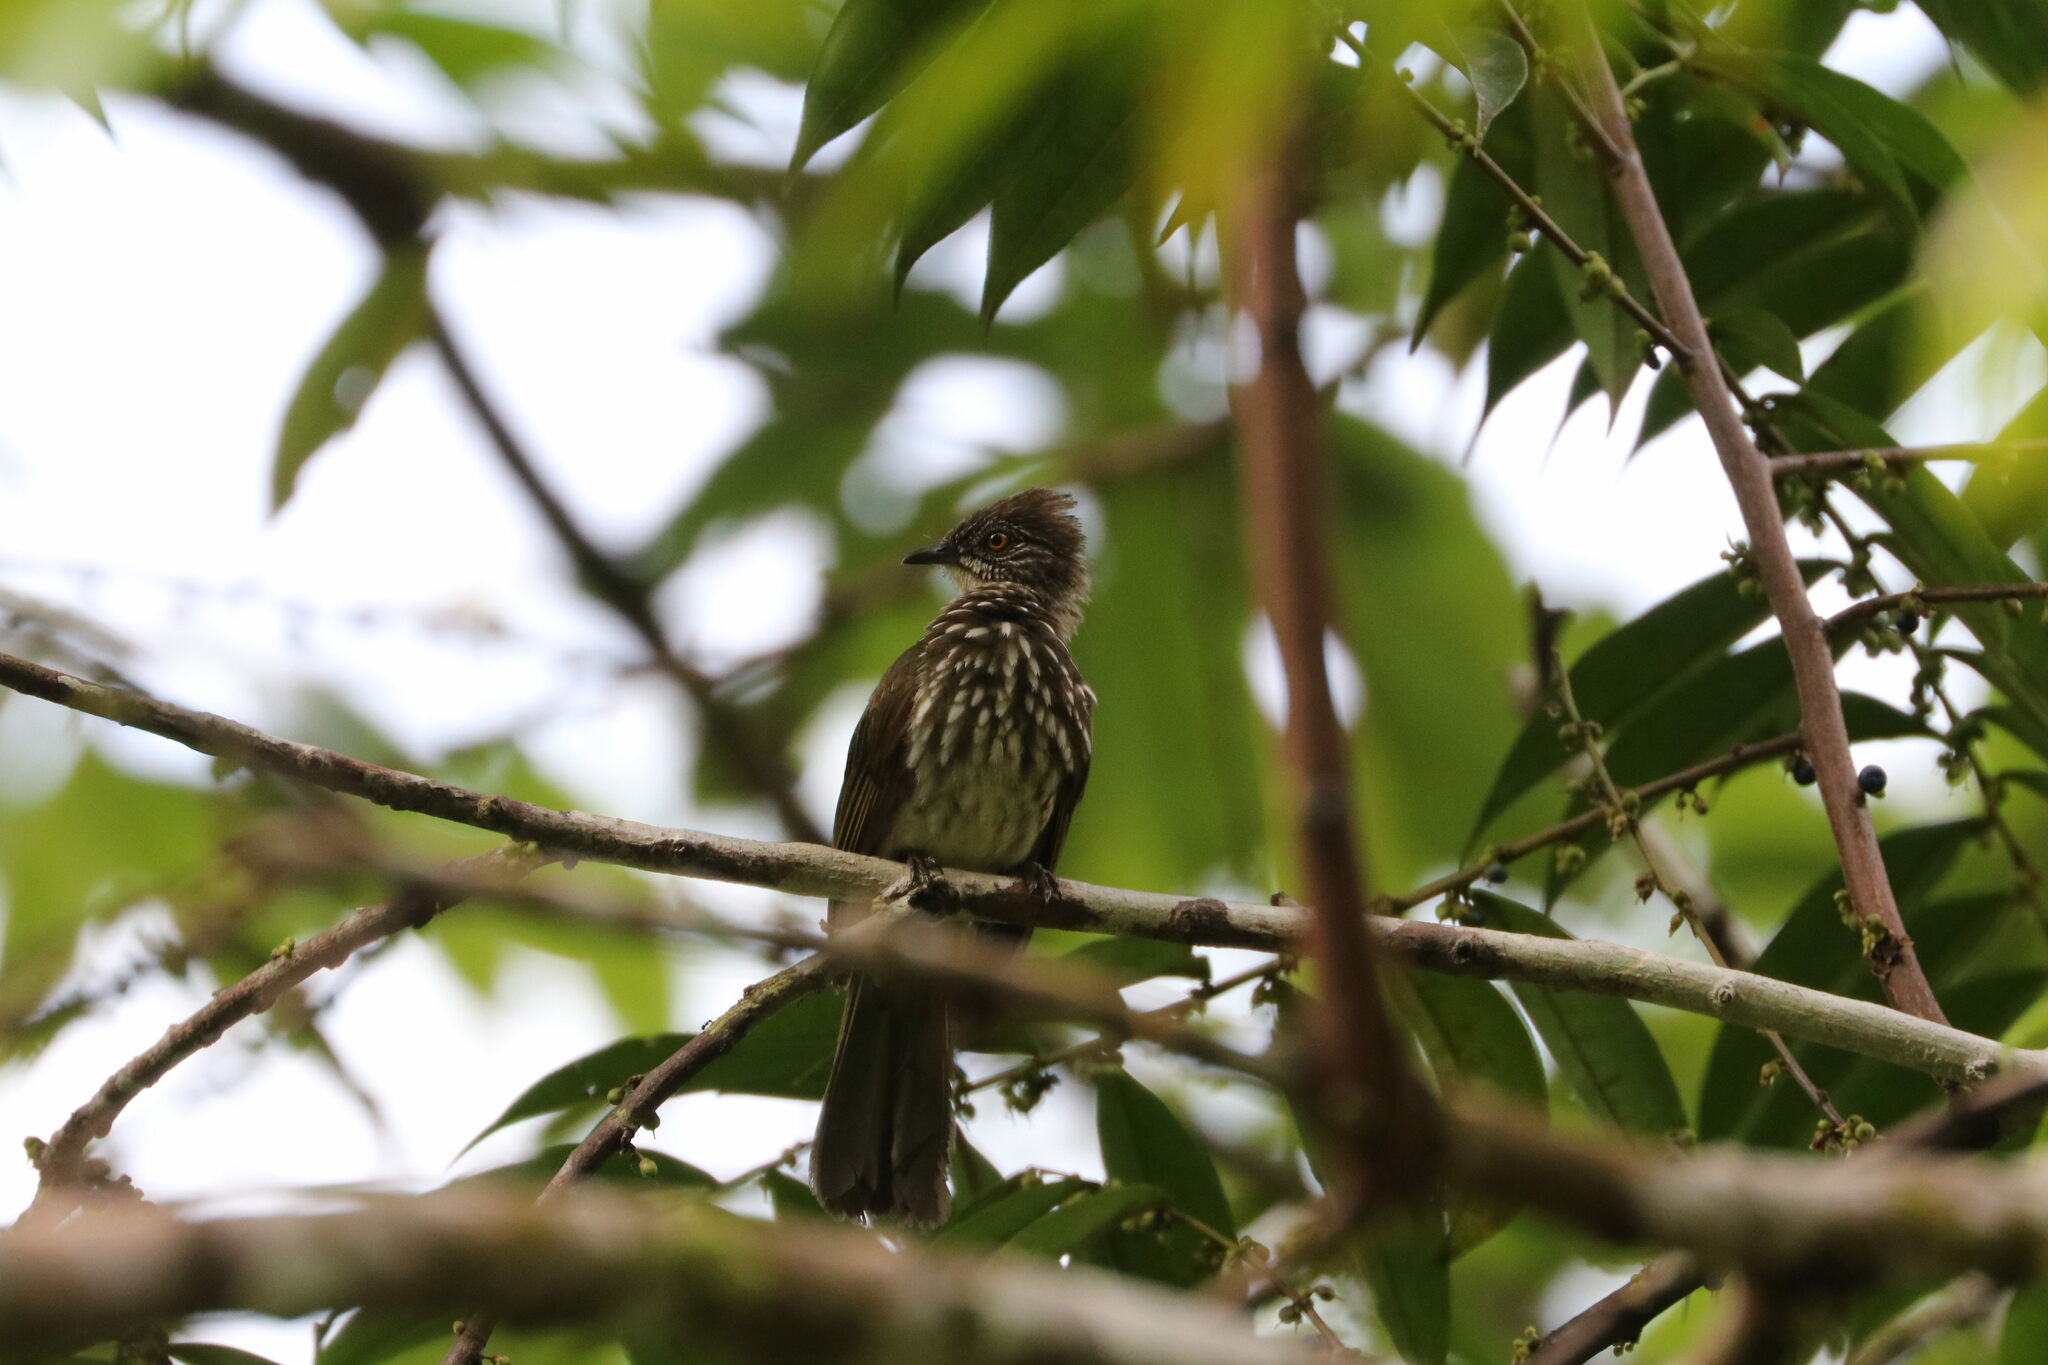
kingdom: Animalia
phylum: Chordata
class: Aves
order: Passeriformes
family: Pycnonotidae
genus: Ixos
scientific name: Ixos
